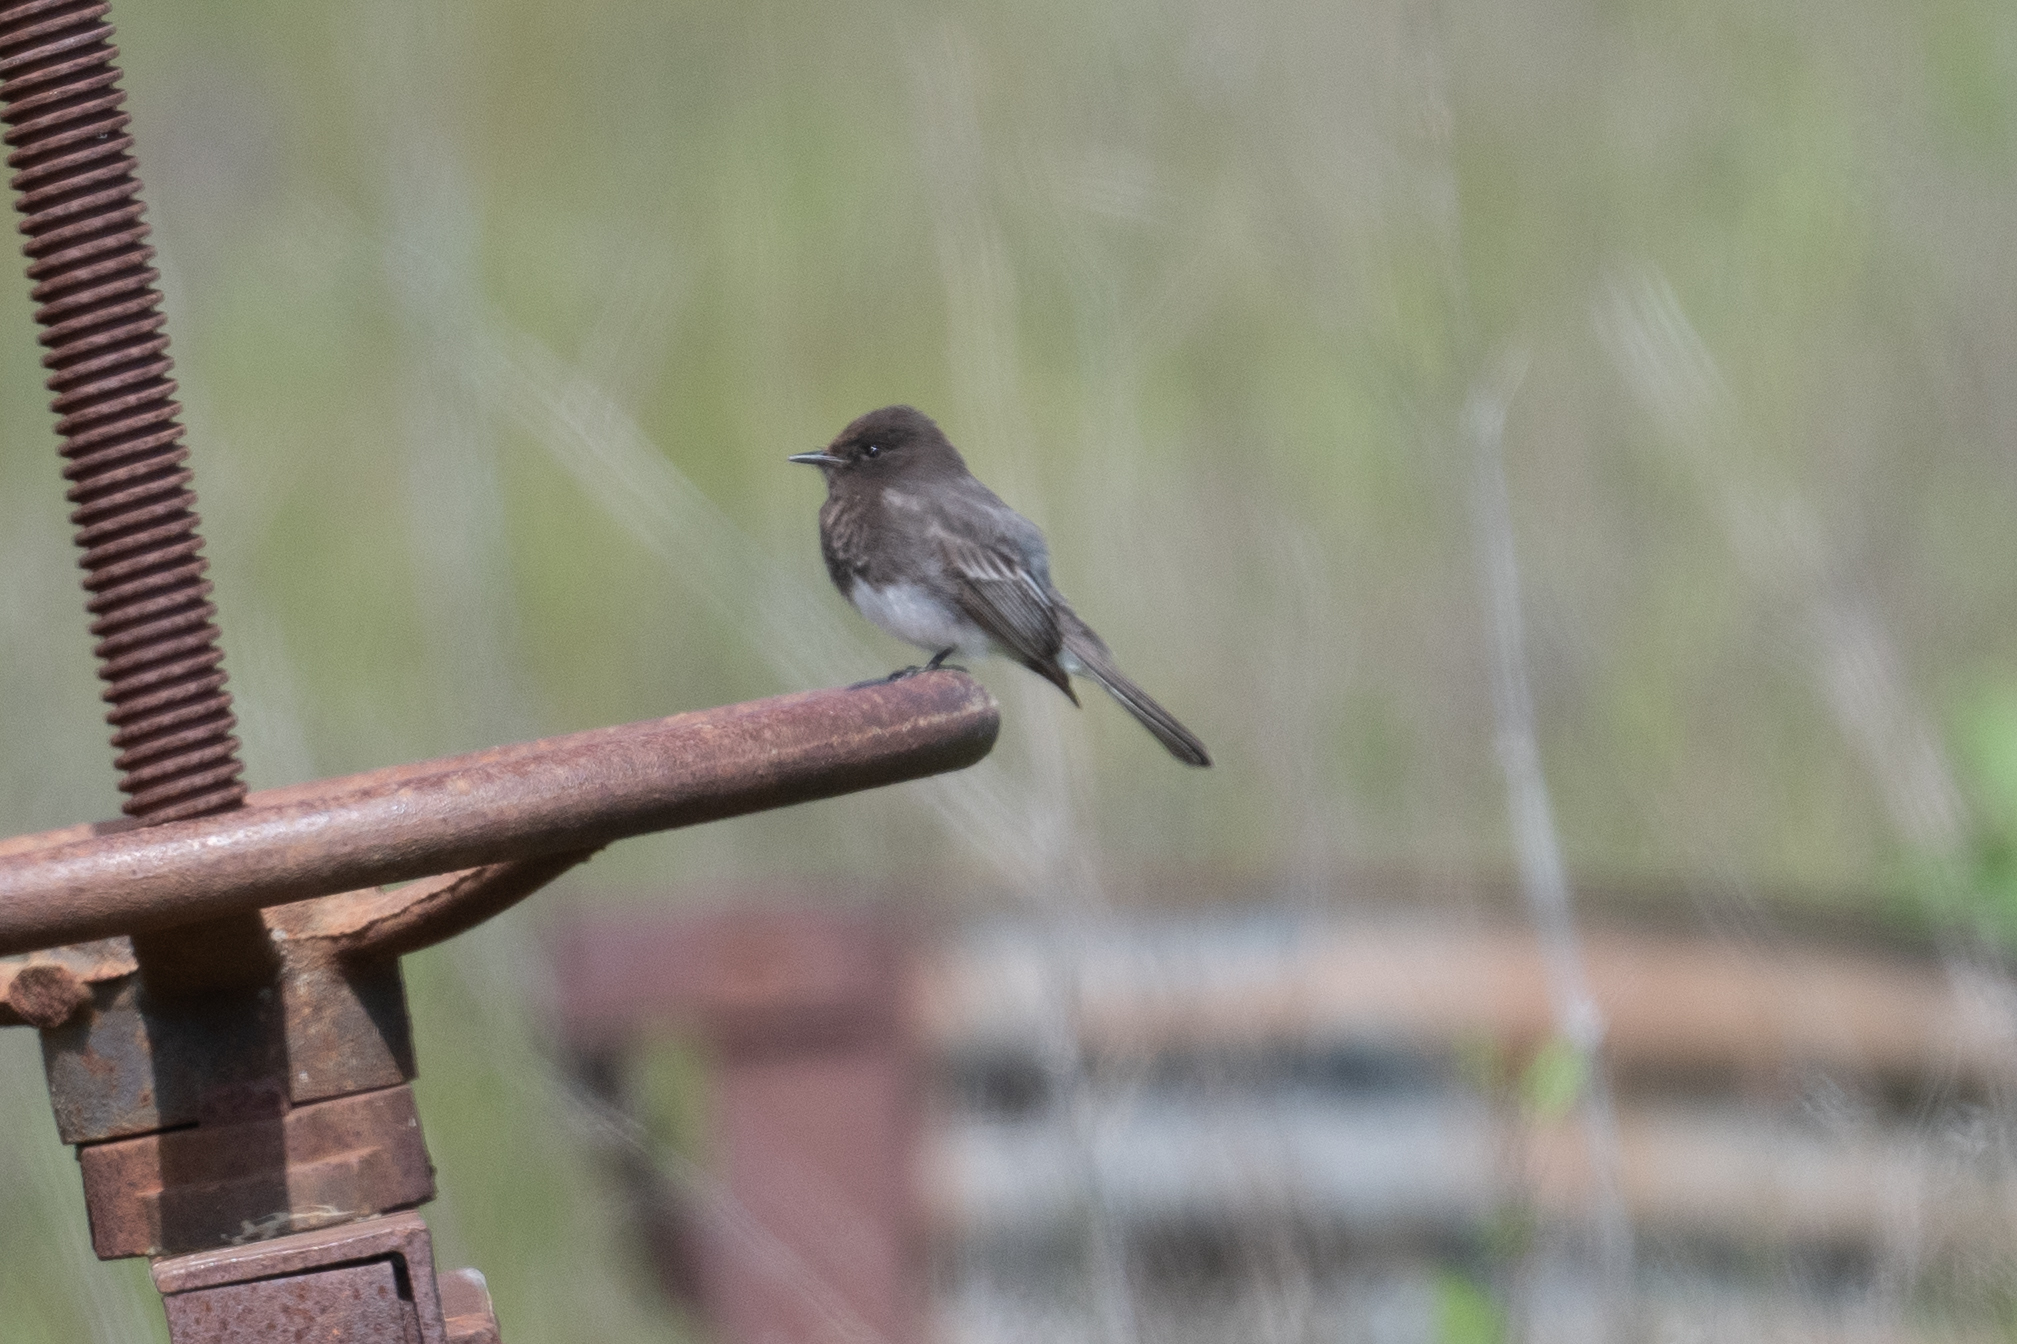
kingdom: Animalia
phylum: Chordata
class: Aves
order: Passeriformes
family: Tyrannidae
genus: Sayornis
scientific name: Sayornis nigricans
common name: Black phoebe
